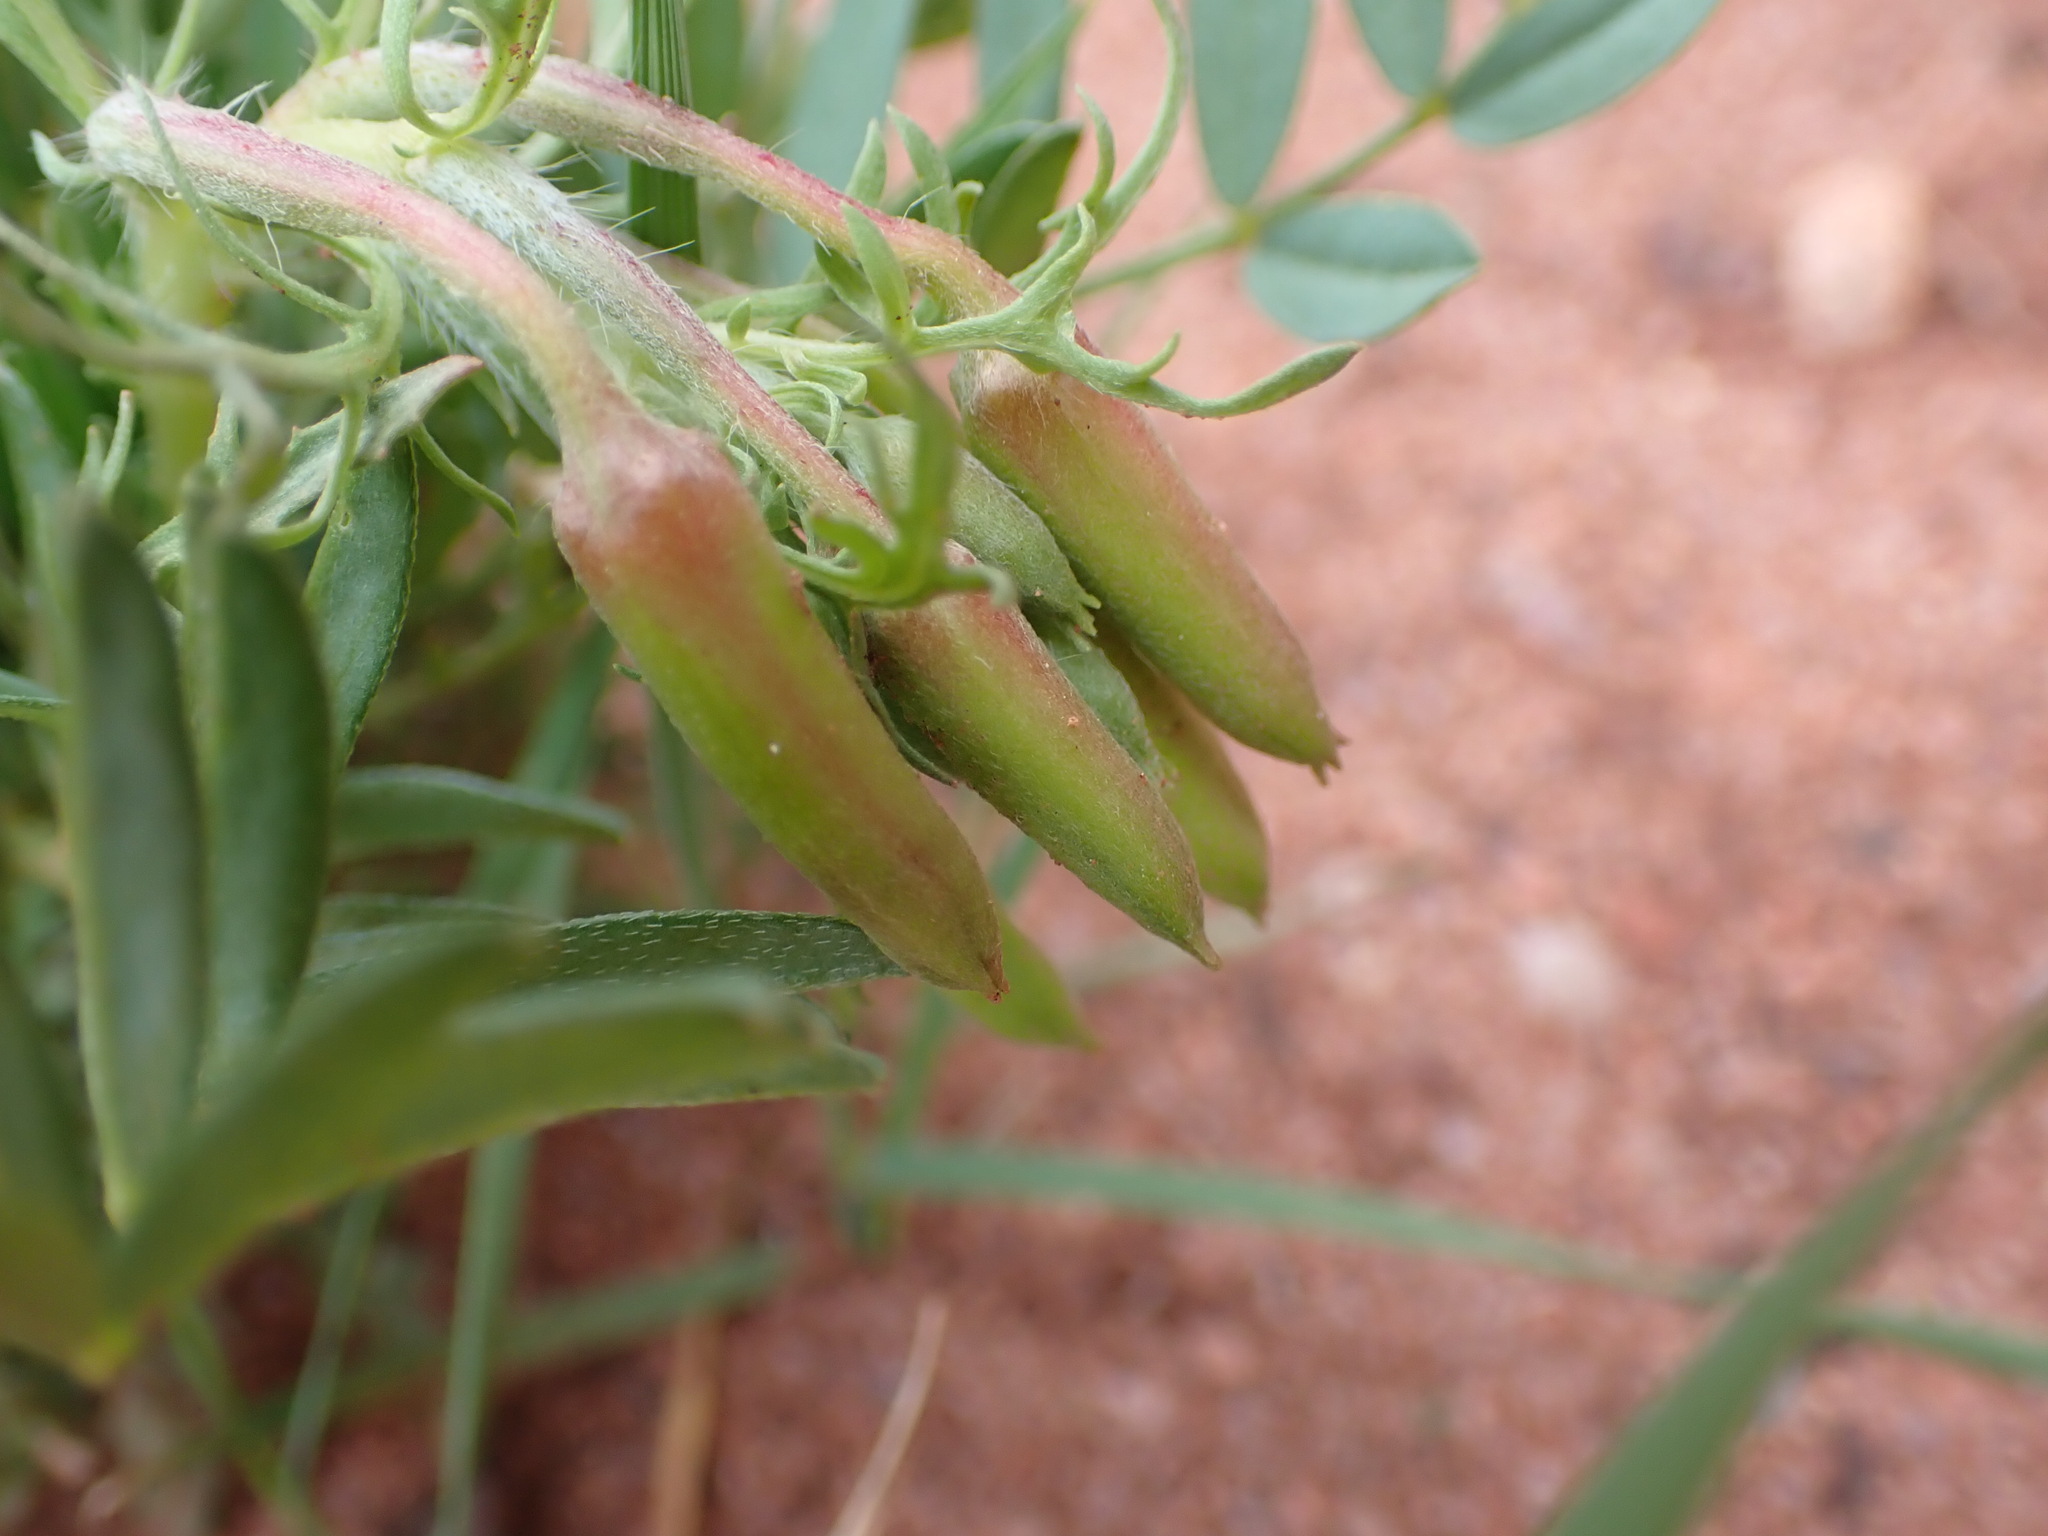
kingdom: Plantae
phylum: Tracheophyta
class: Magnoliopsida
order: Myrtales
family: Onagraceae
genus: Oenothera
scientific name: Oenothera coronopifolia
